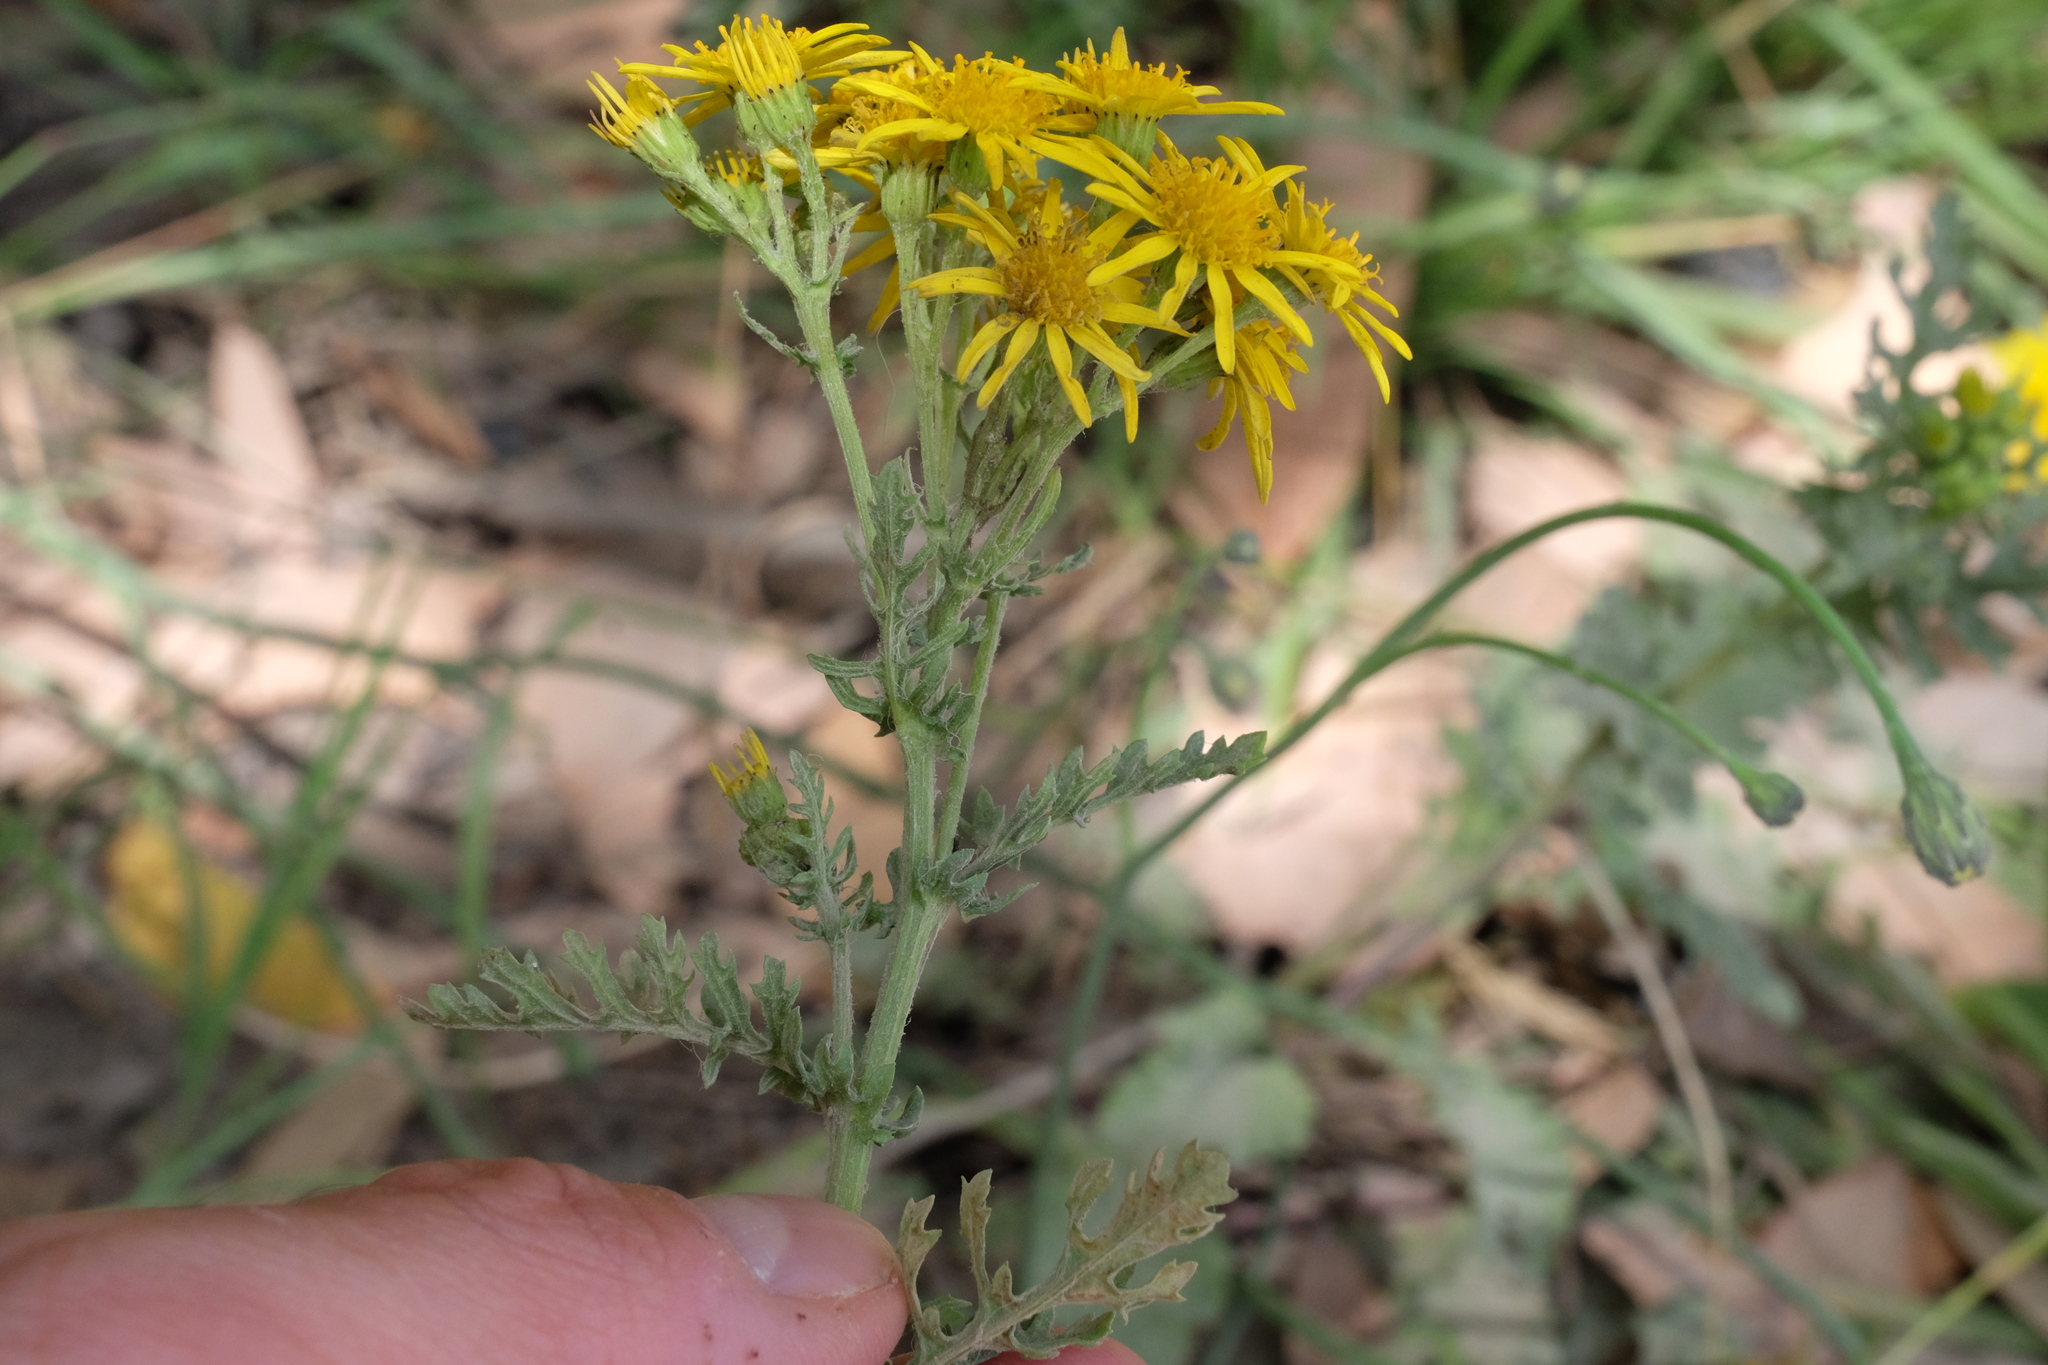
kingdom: Plantae
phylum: Tracheophyta
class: Magnoliopsida
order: Asterales
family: Asteraceae
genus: Jacobaea
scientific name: Jacobaea vulgaris
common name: Stinking willie
